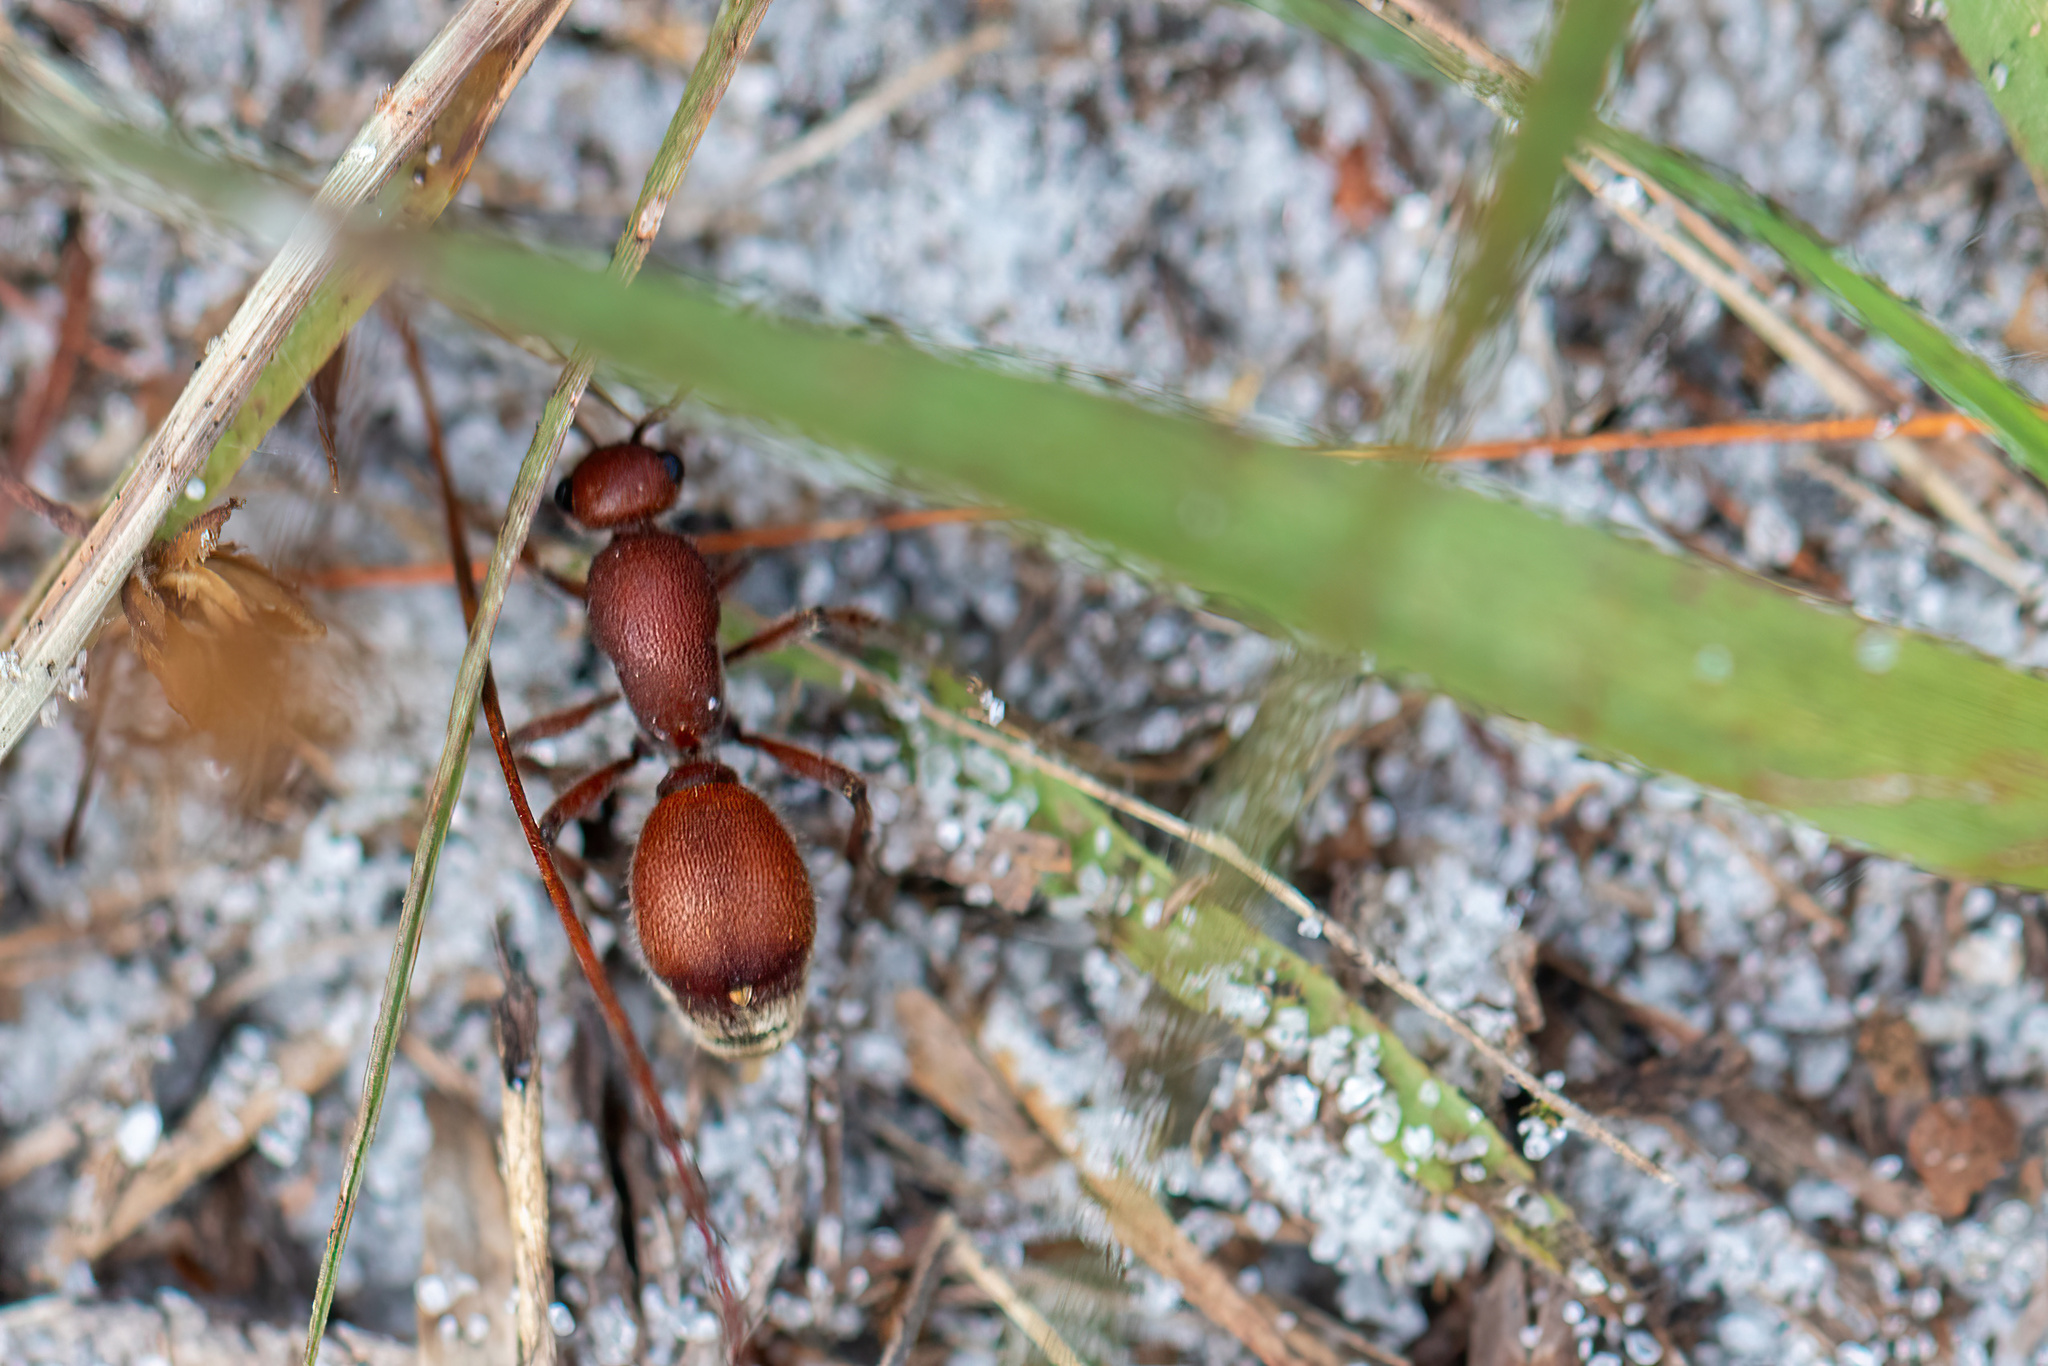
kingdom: Animalia
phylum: Arthropoda
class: Insecta
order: Hymenoptera
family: Mutillidae
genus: Dasymutilla
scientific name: Dasymutilla
